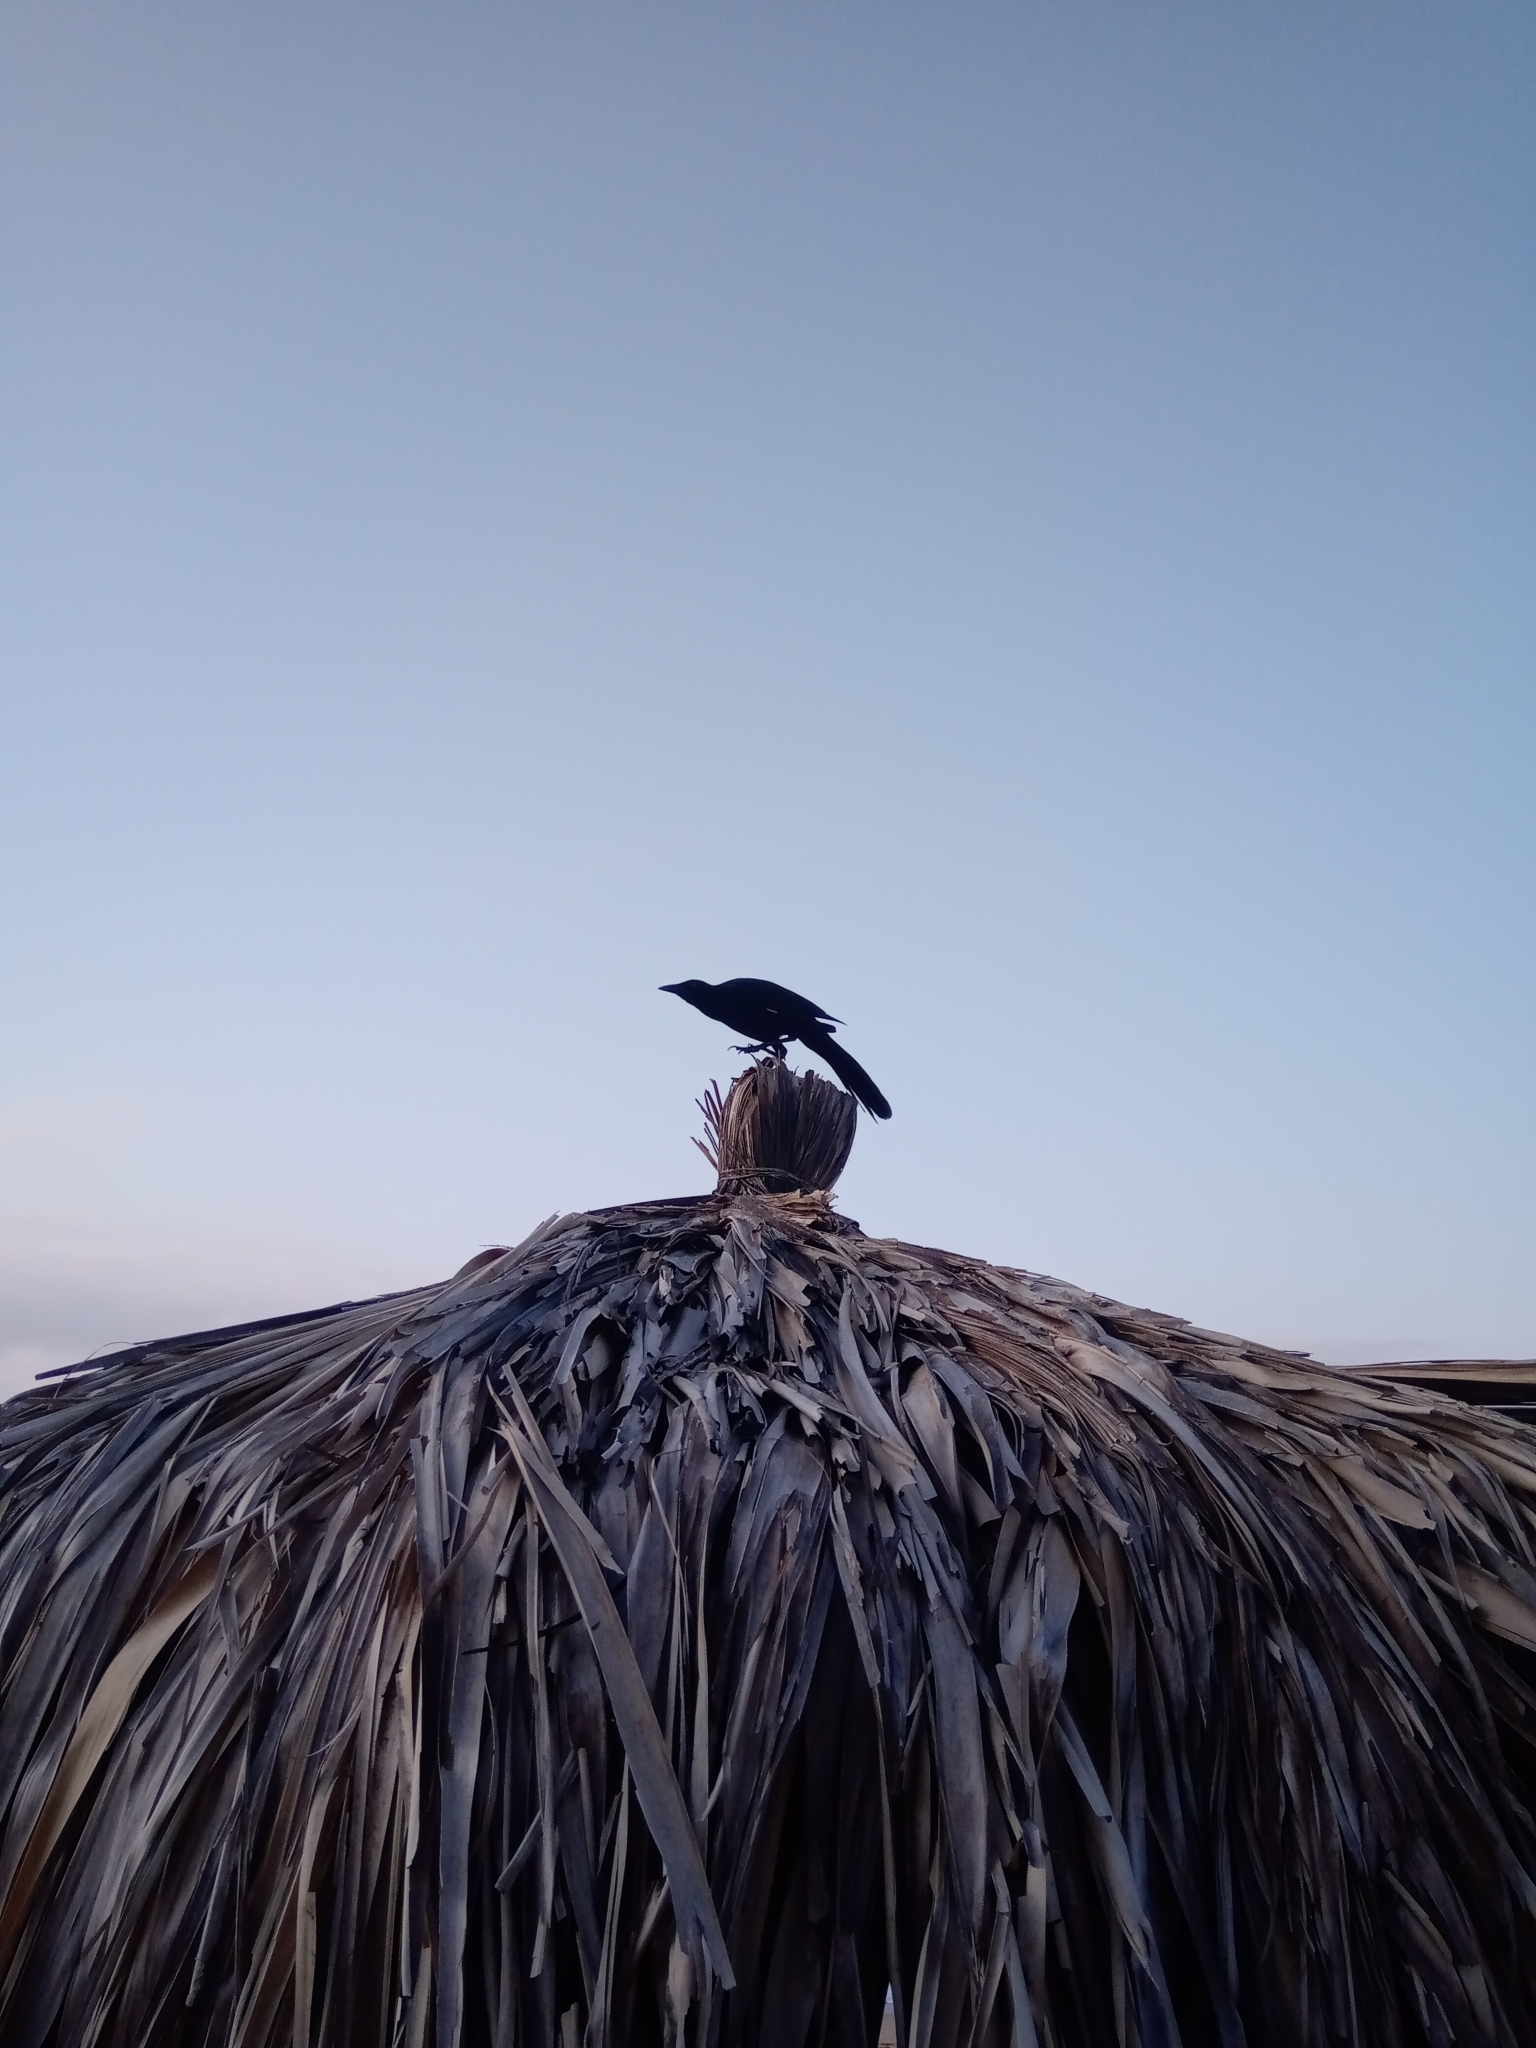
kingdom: Animalia
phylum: Chordata
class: Aves
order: Passeriformes
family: Icteridae
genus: Quiscalus
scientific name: Quiscalus mexicanus
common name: Great-tailed grackle
